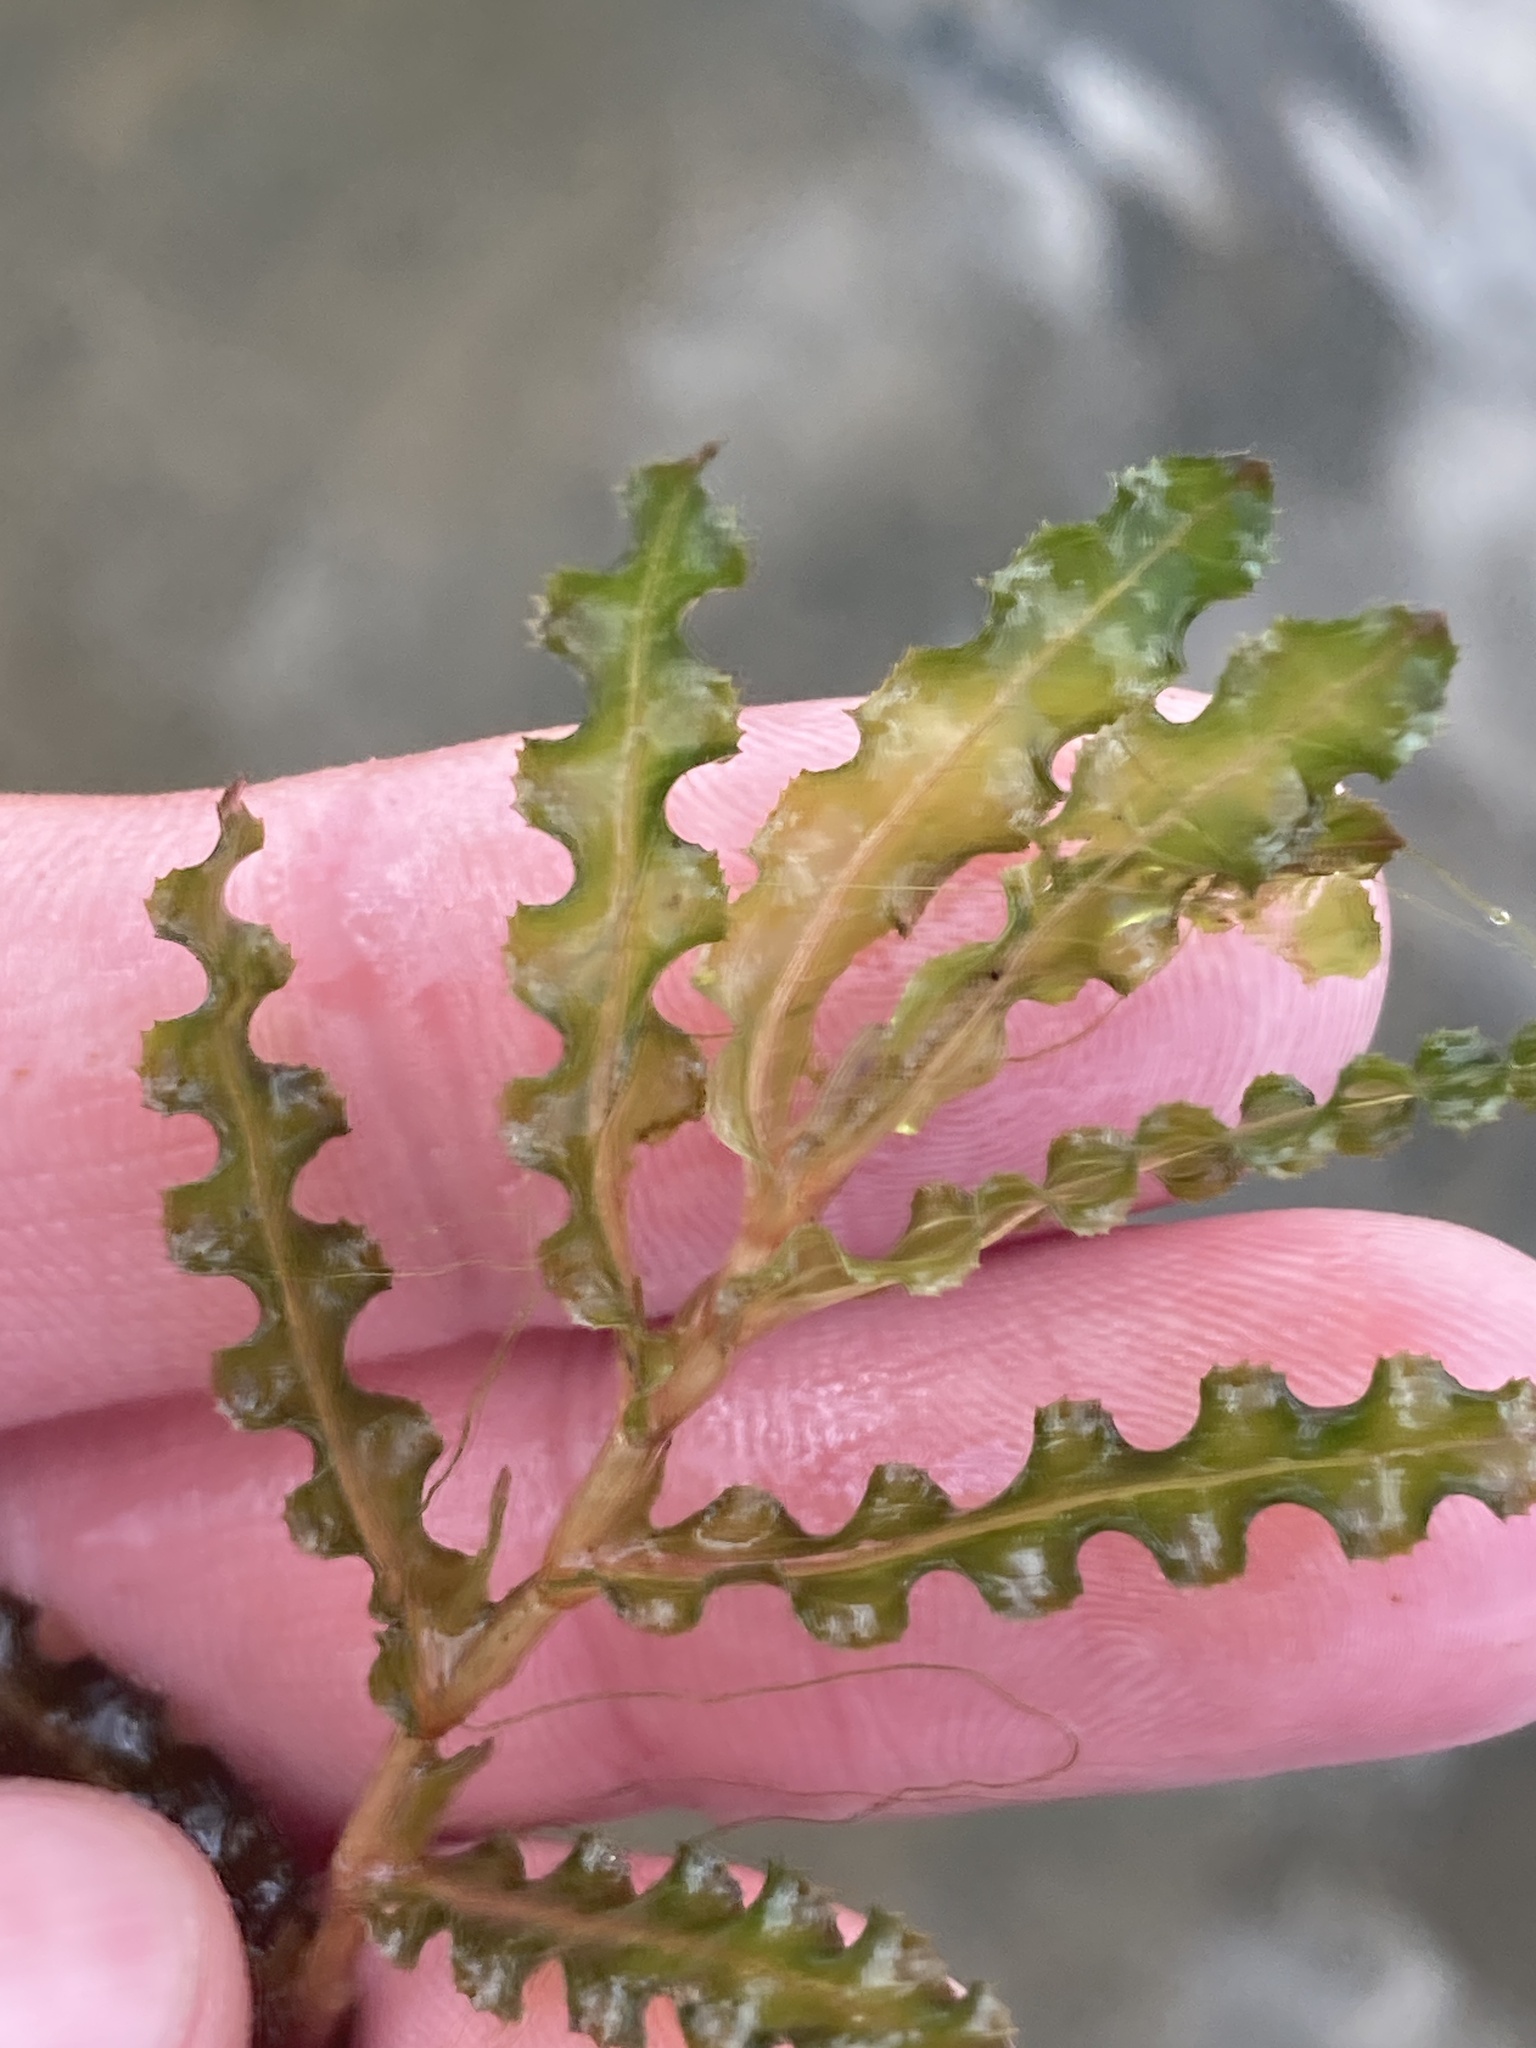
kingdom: Plantae
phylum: Tracheophyta
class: Liliopsida
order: Alismatales
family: Potamogetonaceae
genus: Potamogeton
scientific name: Potamogeton crispus
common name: Curled pondweed
